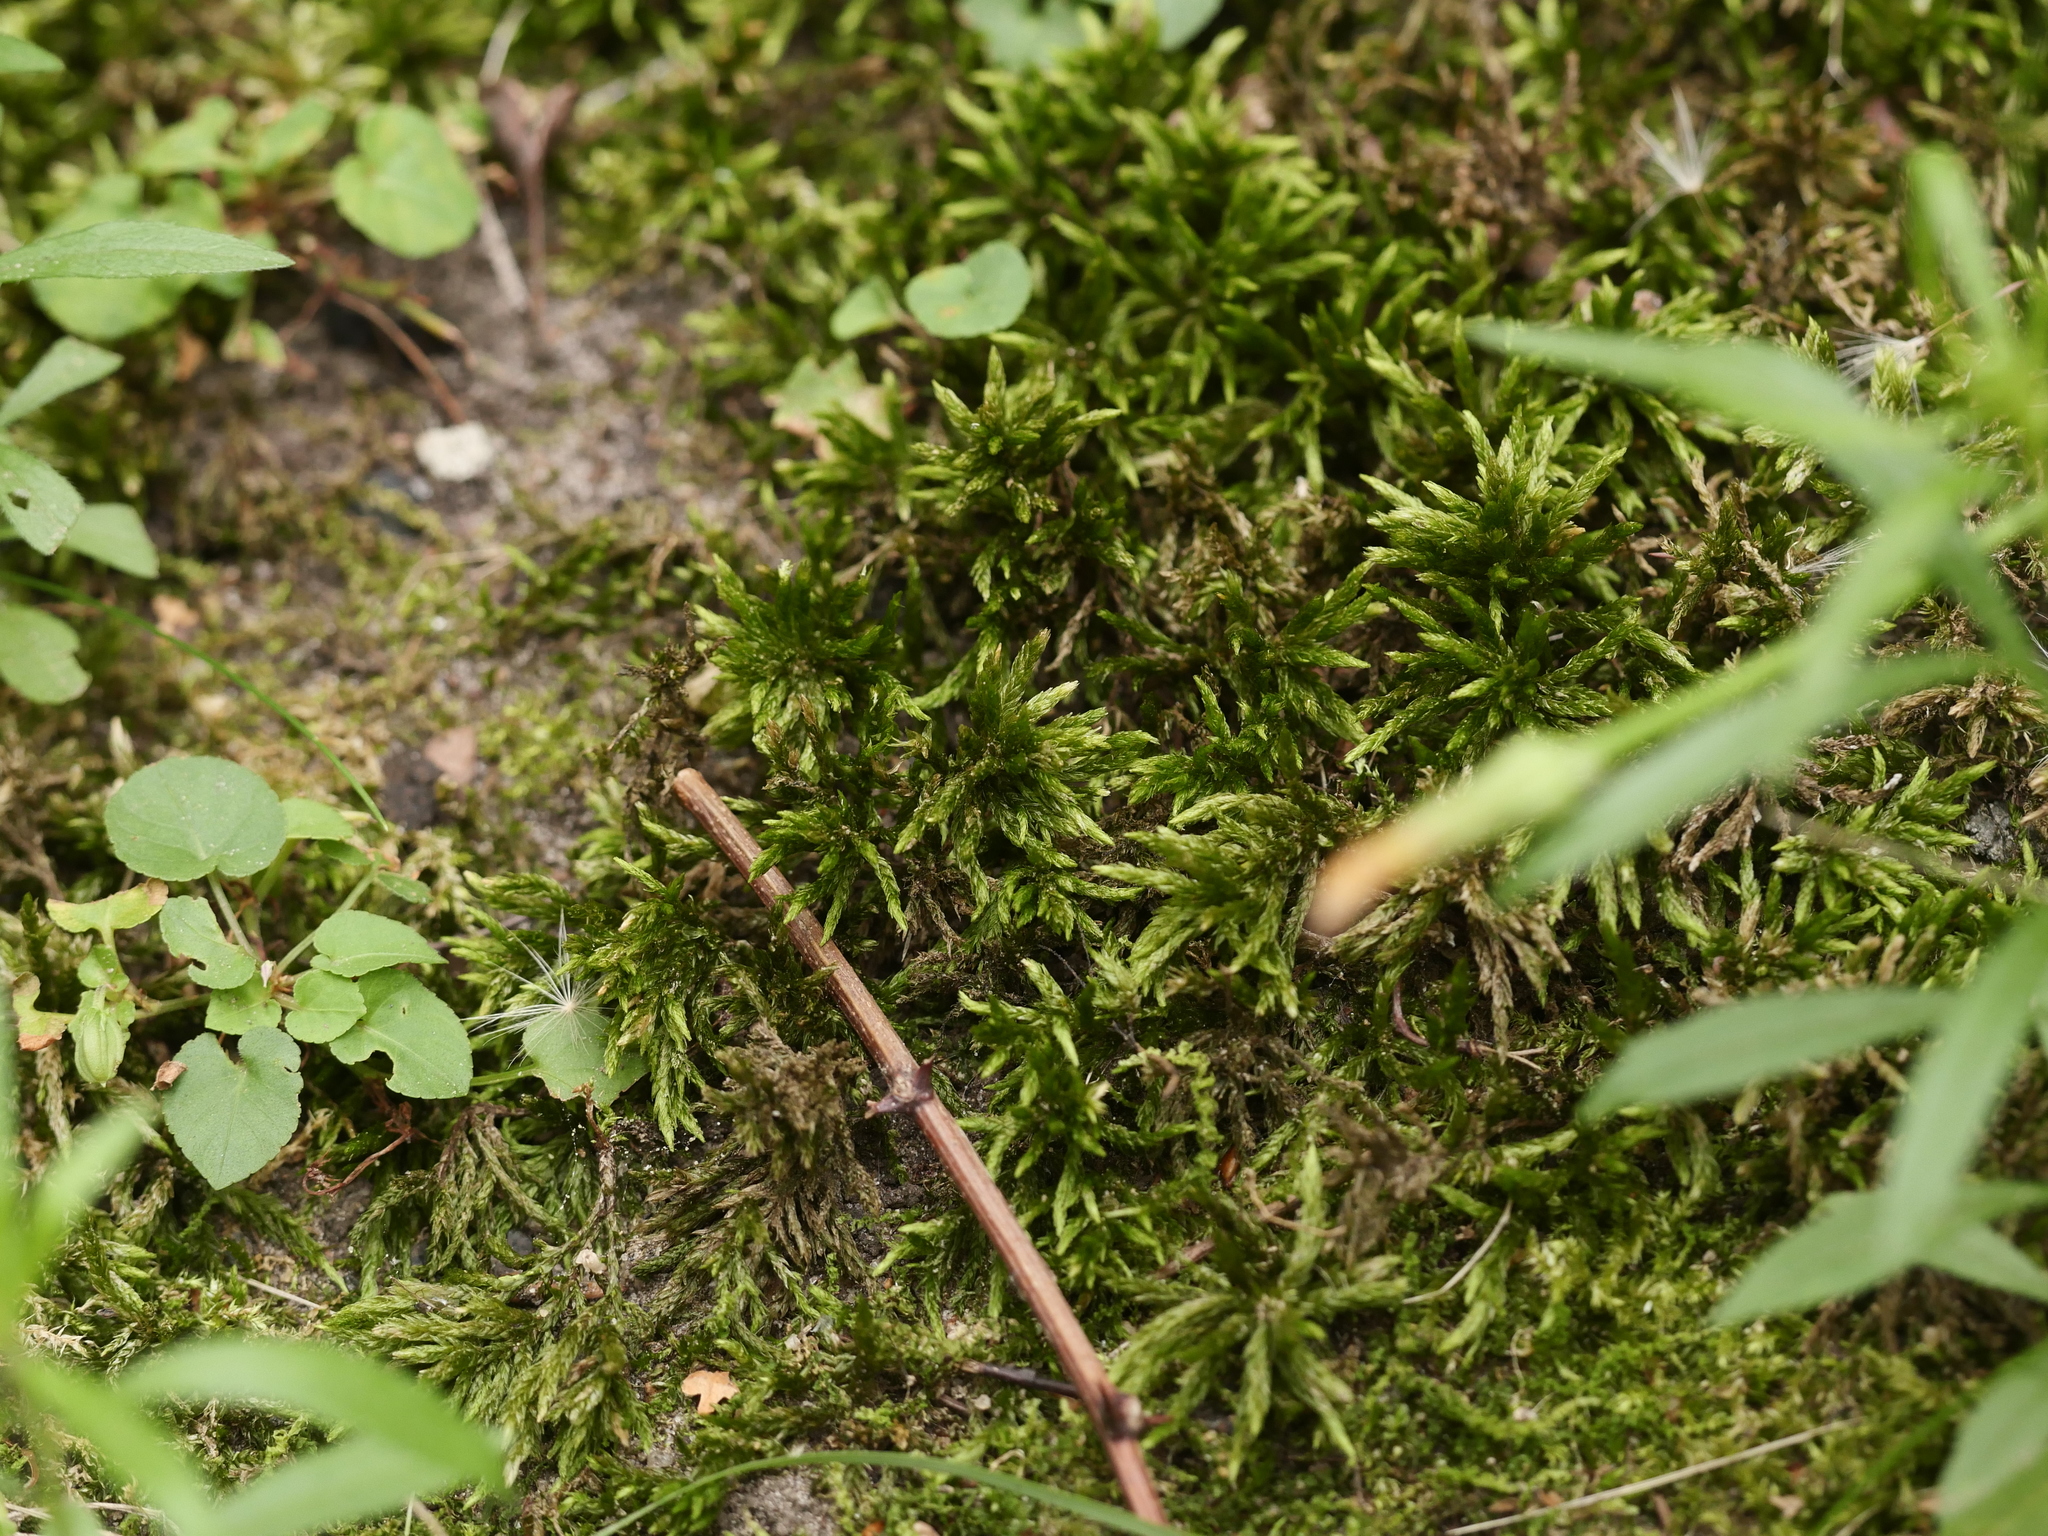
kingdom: Plantae
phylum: Bryophyta
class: Bryopsida
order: Hypnales
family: Climaciaceae
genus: Climacium
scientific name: Climacium dendroides
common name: Northern tree moss
